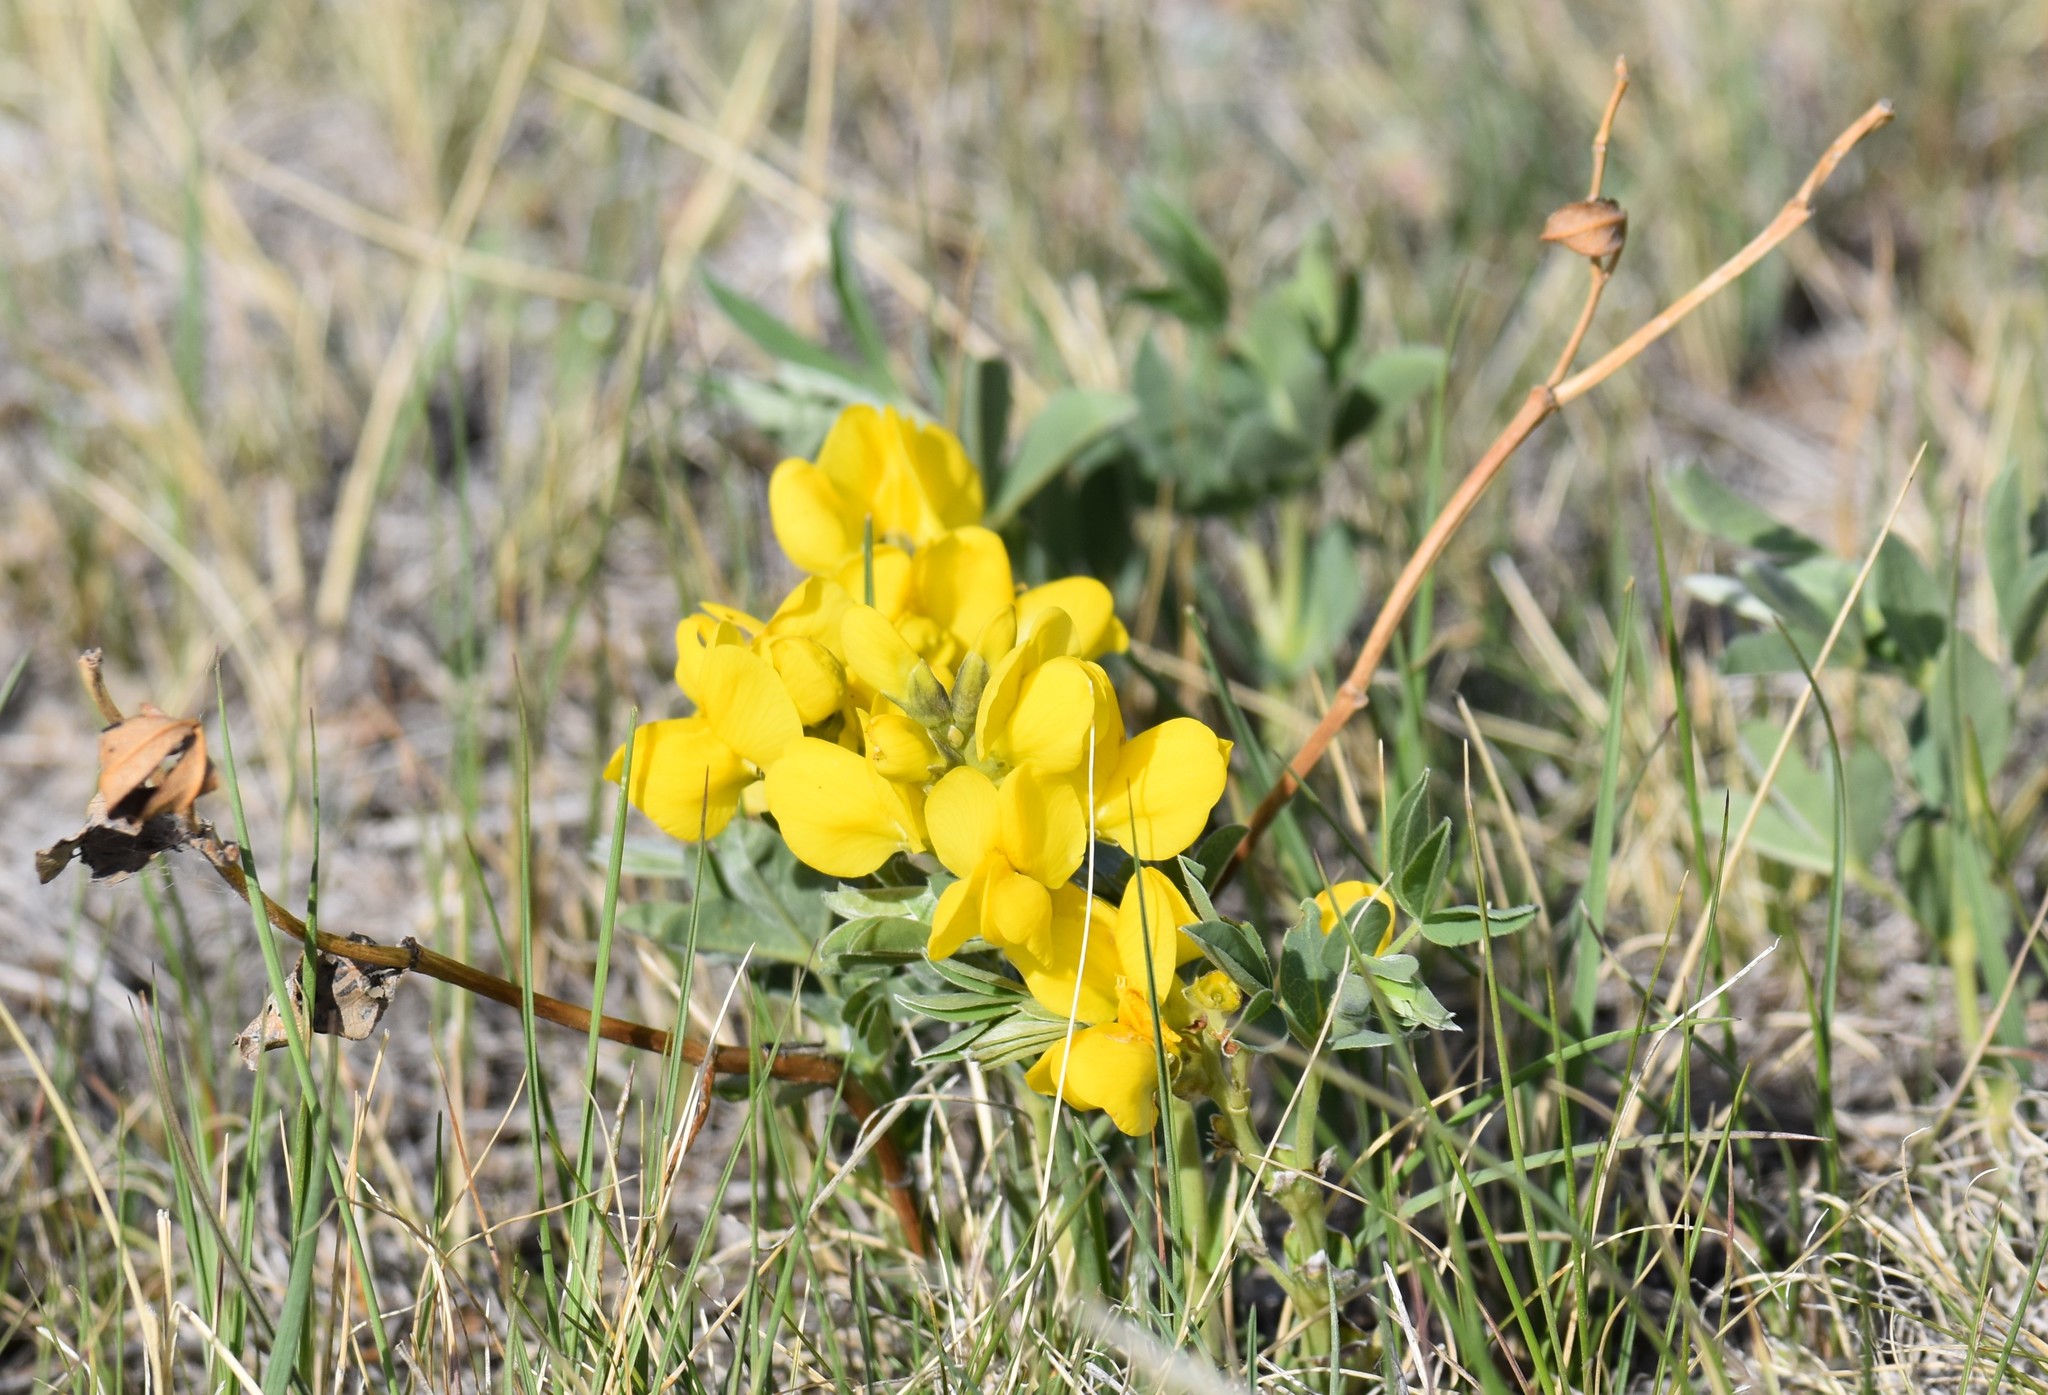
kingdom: Plantae
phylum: Tracheophyta
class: Magnoliopsida
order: Fabales
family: Fabaceae
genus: Thermopsis
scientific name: Thermopsis rhombifolia
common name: Circle-pod-pea
